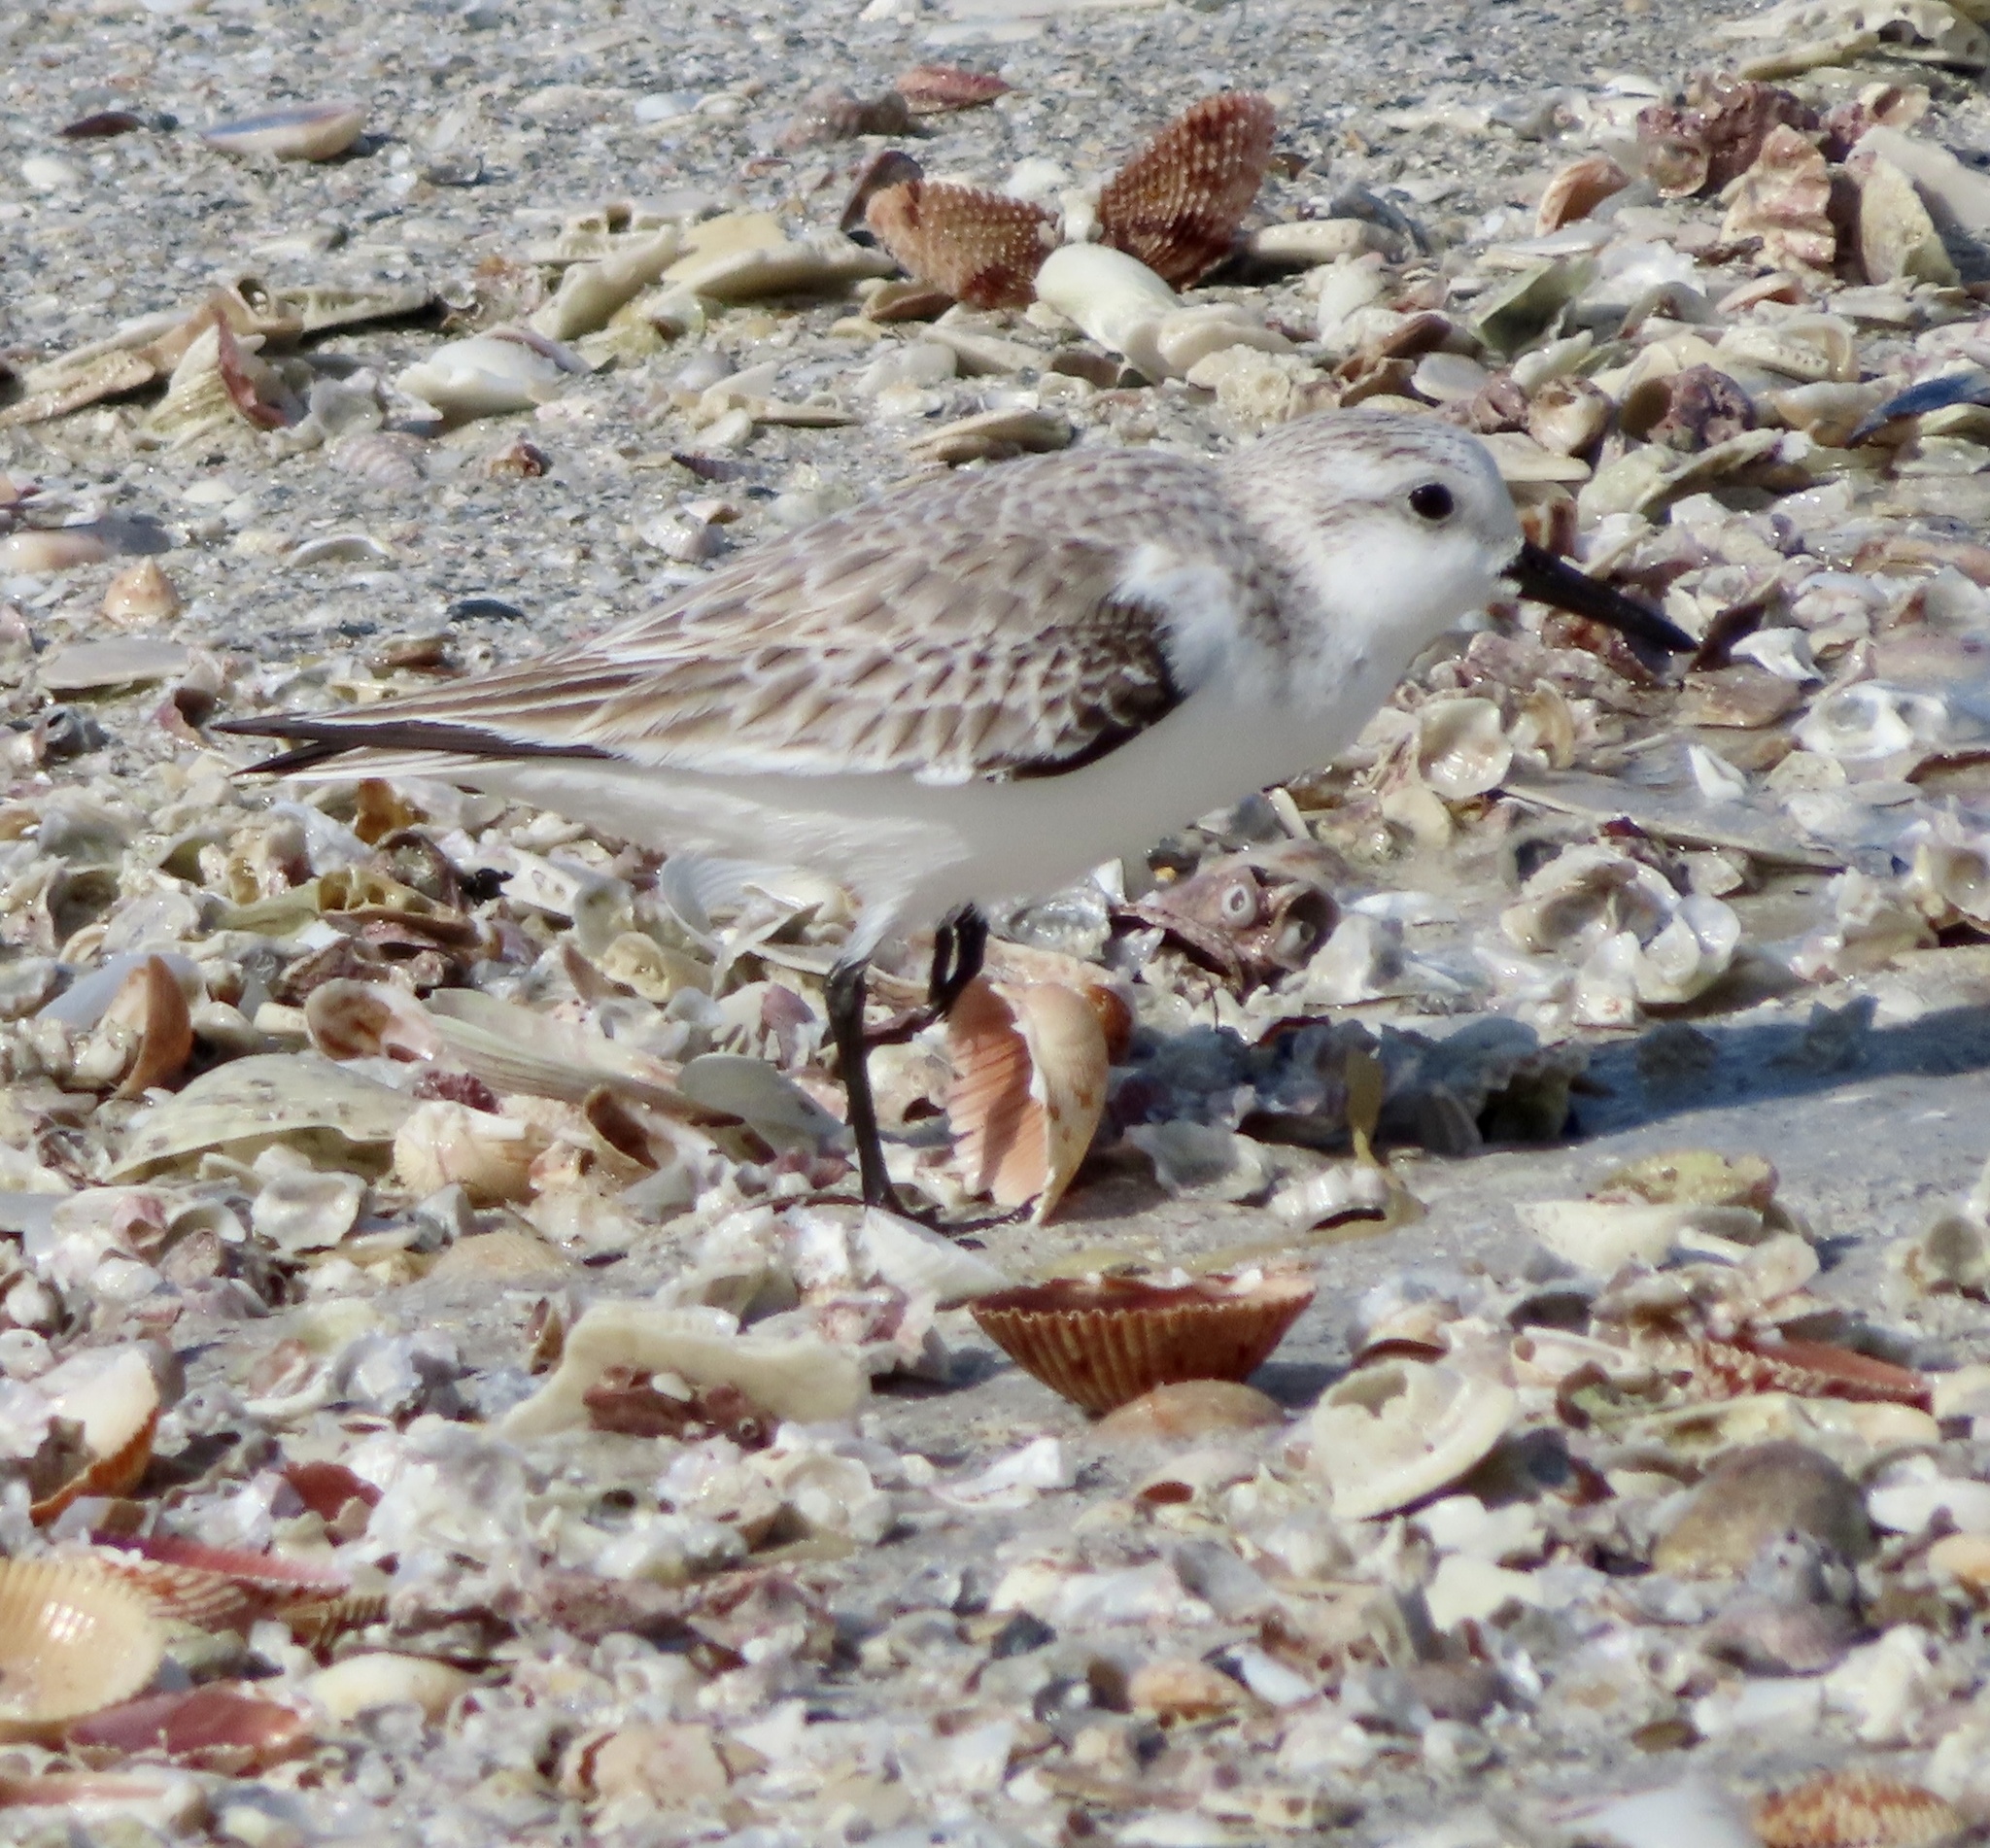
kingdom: Animalia
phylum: Chordata
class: Aves
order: Charadriiformes
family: Scolopacidae
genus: Calidris
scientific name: Calidris alba
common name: Sanderling
